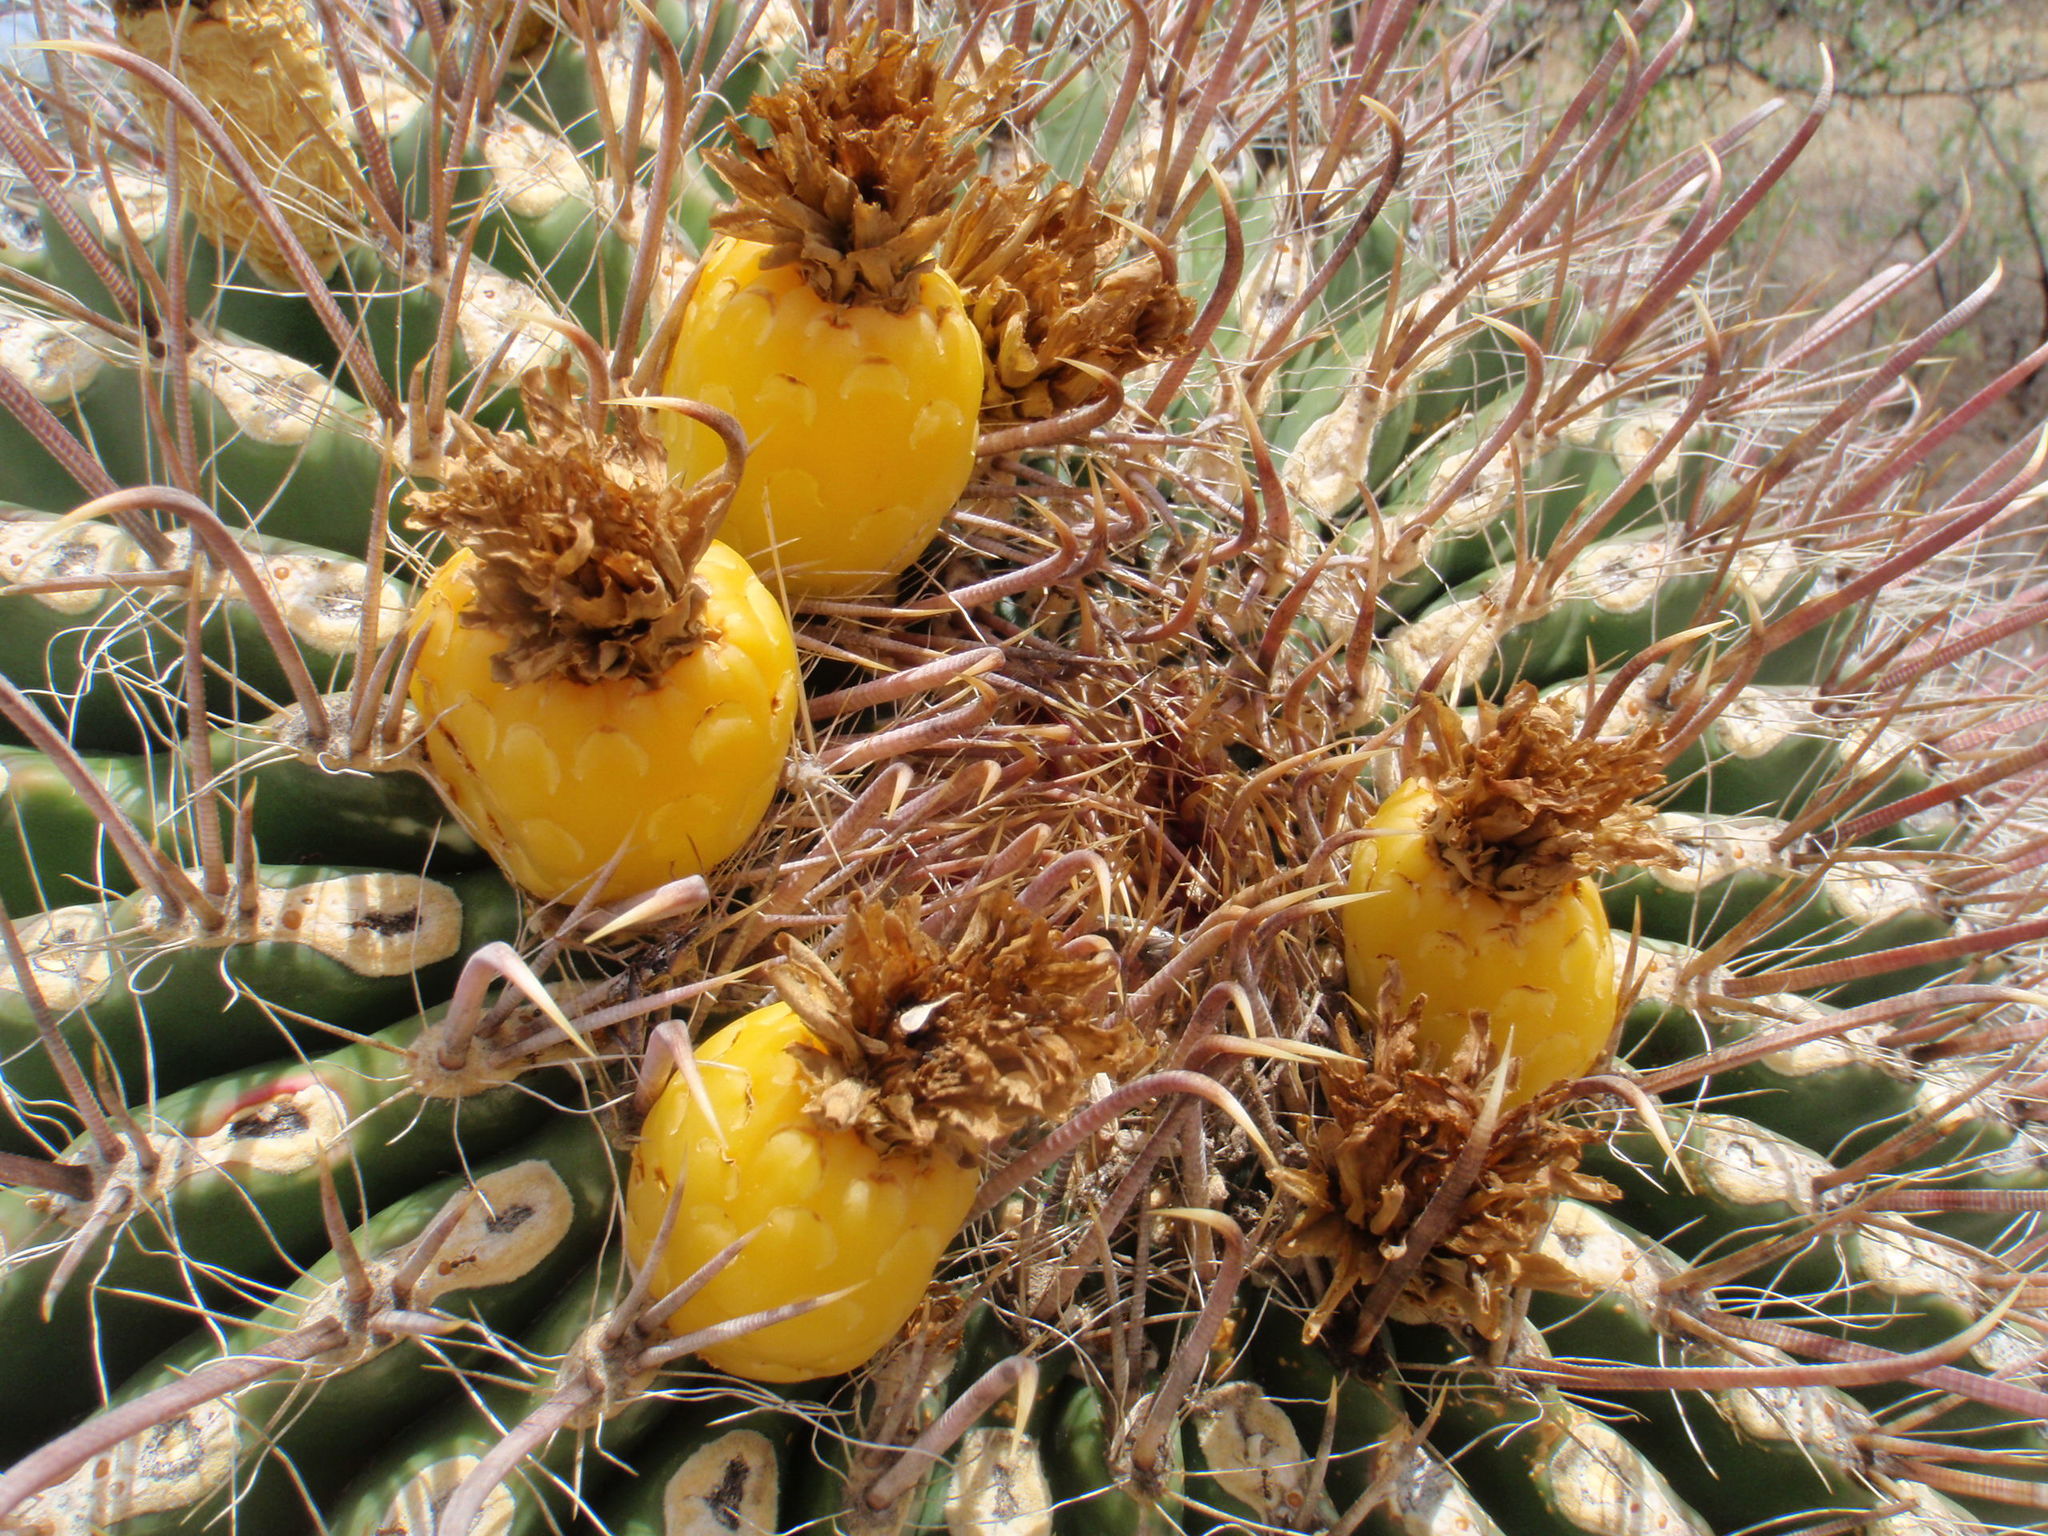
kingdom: Plantae
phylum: Tracheophyta
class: Magnoliopsida
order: Caryophyllales
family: Cactaceae
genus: Ferocactus
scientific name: Ferocactus wislizeni
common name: Candy barrel cactus
